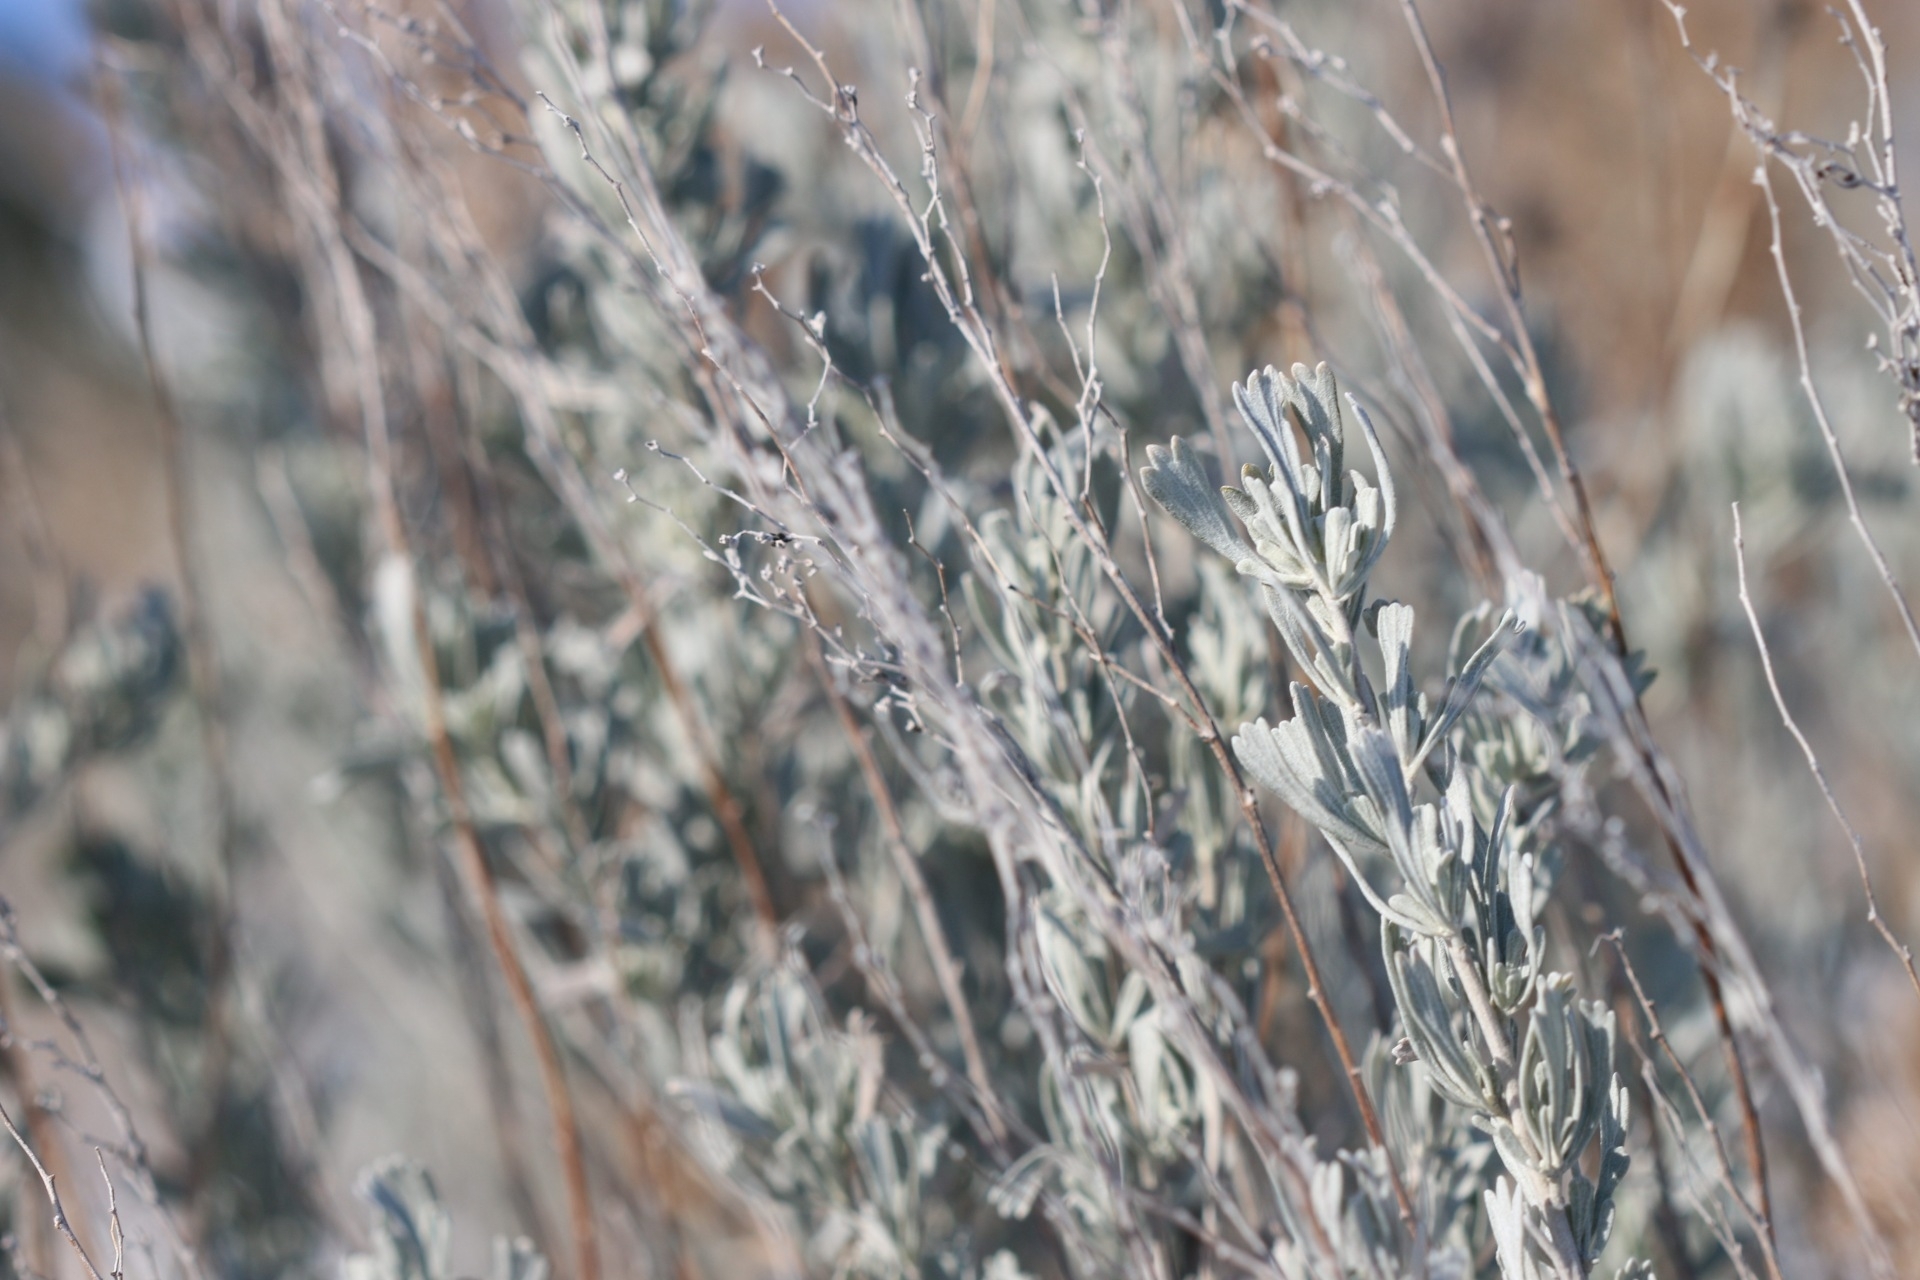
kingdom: Plantae
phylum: Tracheophyta
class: Magnoliopsida
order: Asterales
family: Asteraceae
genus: Artemisia
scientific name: Artemisia tridentata
